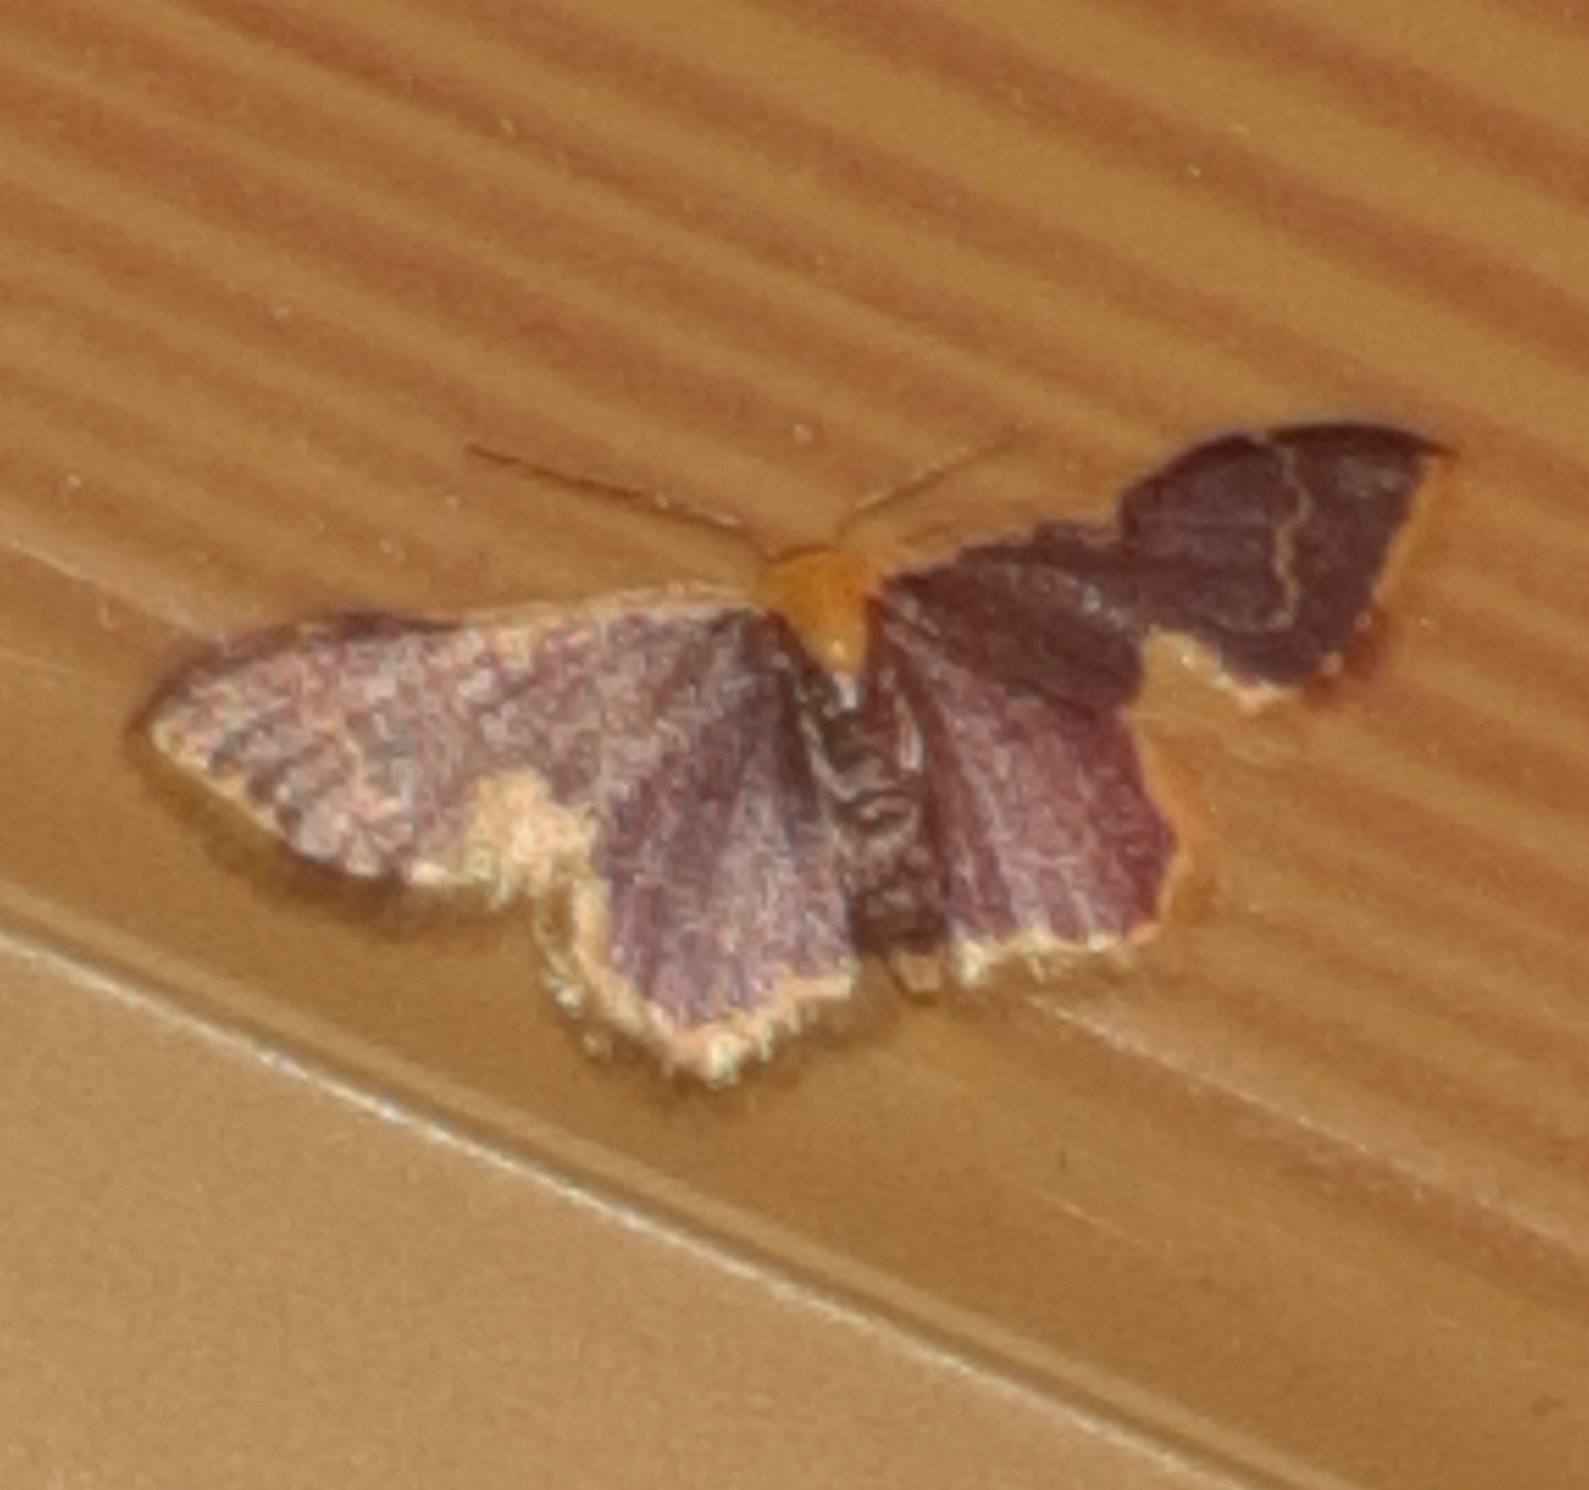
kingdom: Animalia
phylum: Arthropoda
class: Insecta
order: Lepidoptera
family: Geometridae
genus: Idaea
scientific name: Idaea gemma
